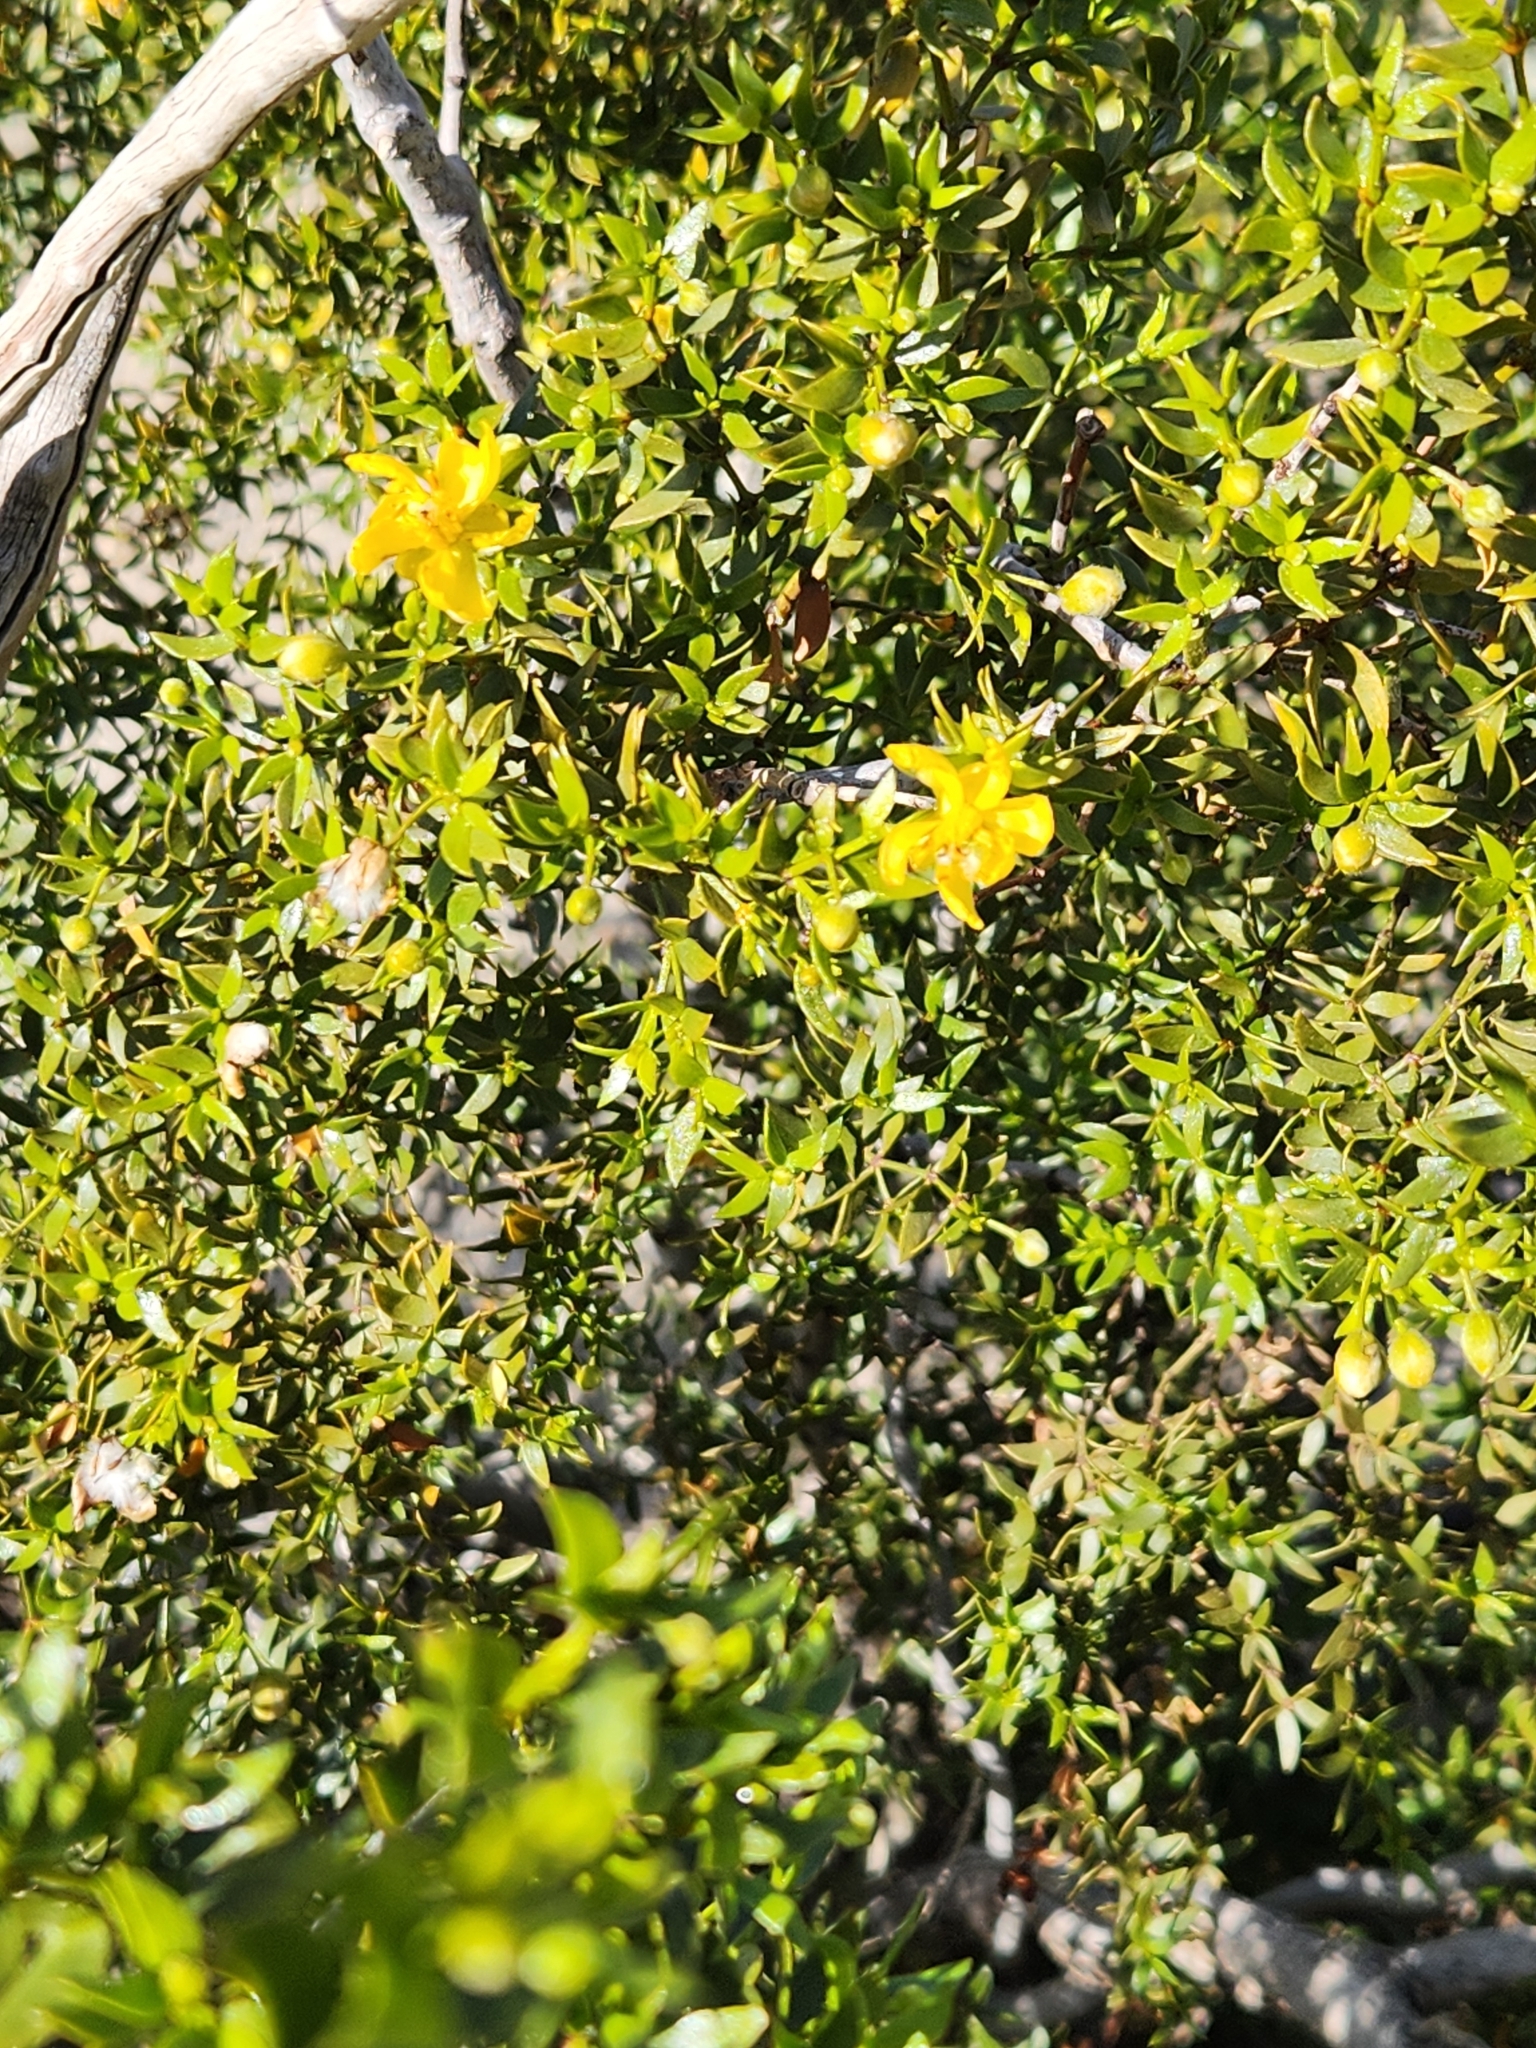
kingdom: Plantae
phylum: Tracheophyta
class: Magnoliopsida
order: Zygophyllales
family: Zygophyllaceae
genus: Larrea
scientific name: Larrea tridentata
